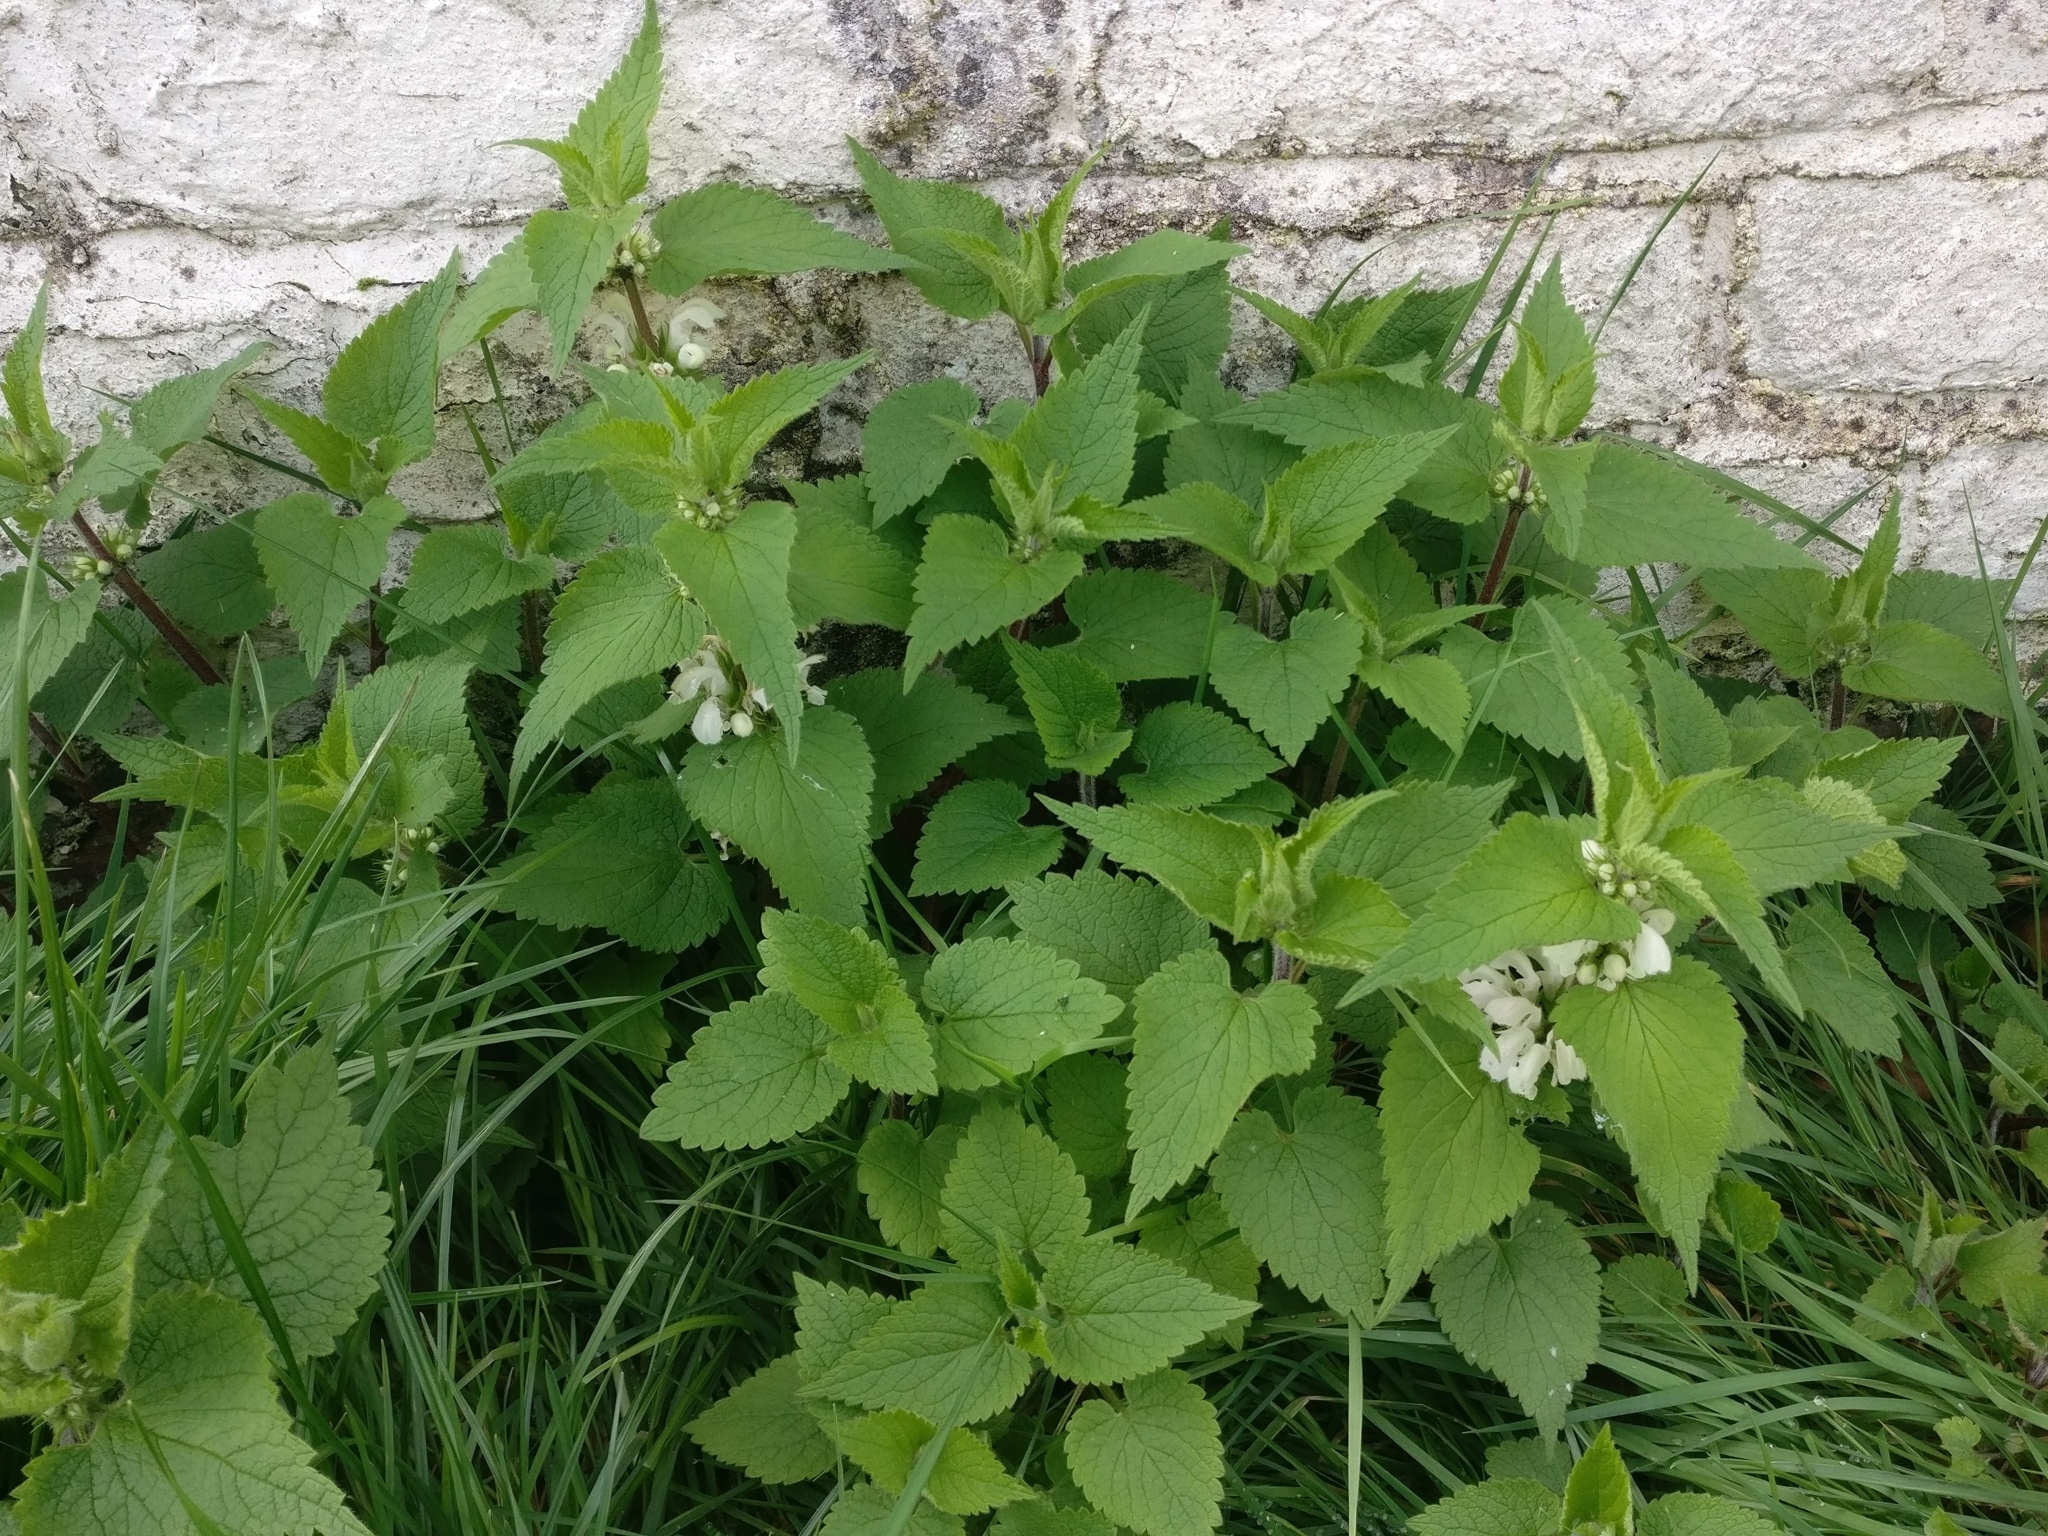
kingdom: Plantae
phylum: Tracheophyta
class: Magnoliopsida
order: Lamiales
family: Lamiaceae
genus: Lamium
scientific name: Lamium album
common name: White dead-nettle
